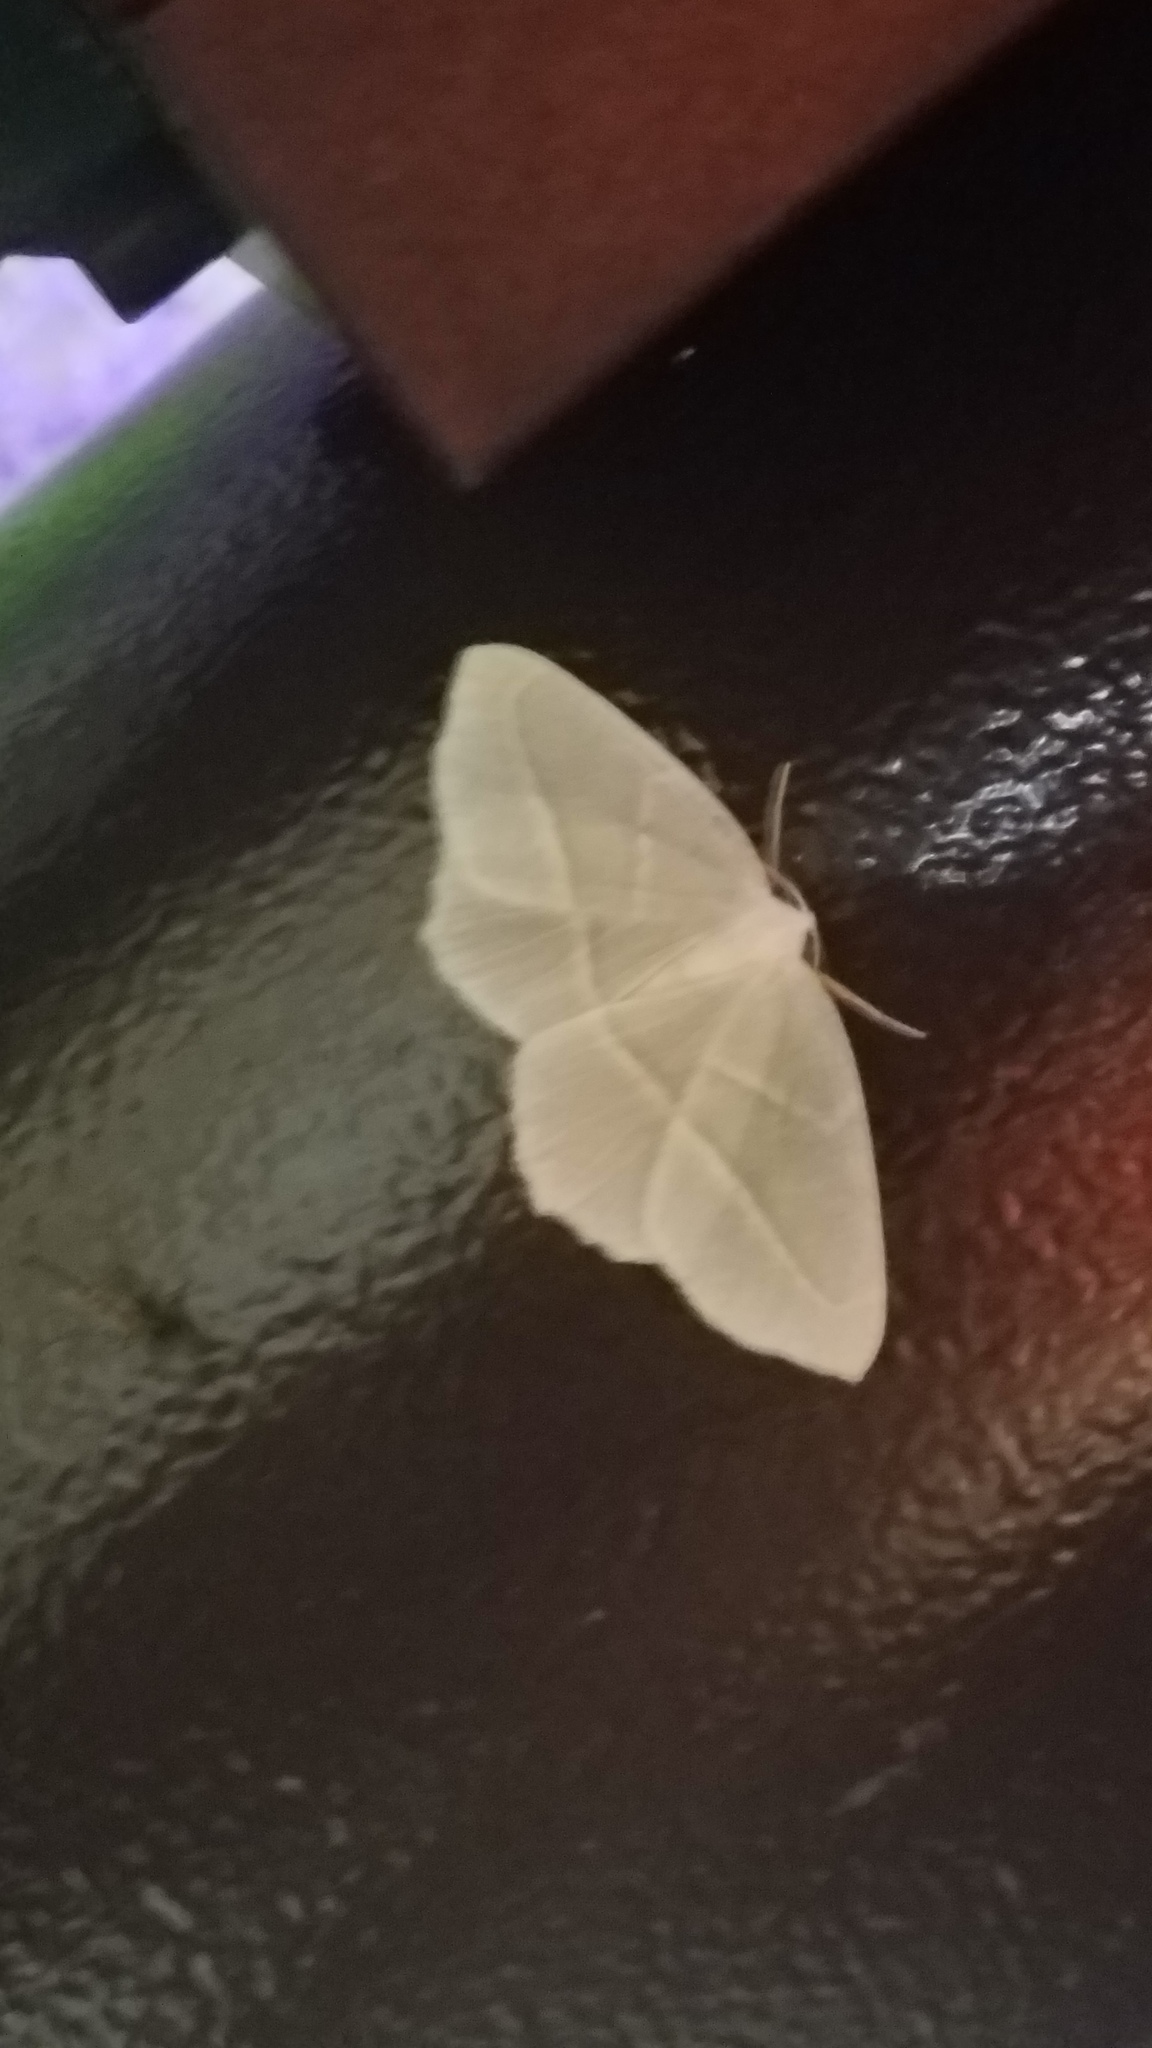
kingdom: Animalia
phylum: Arthropoda
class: Insecta
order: Lepidoptera
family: Geometridae
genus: Campaea
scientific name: Campaea perlata
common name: Fringed looper
